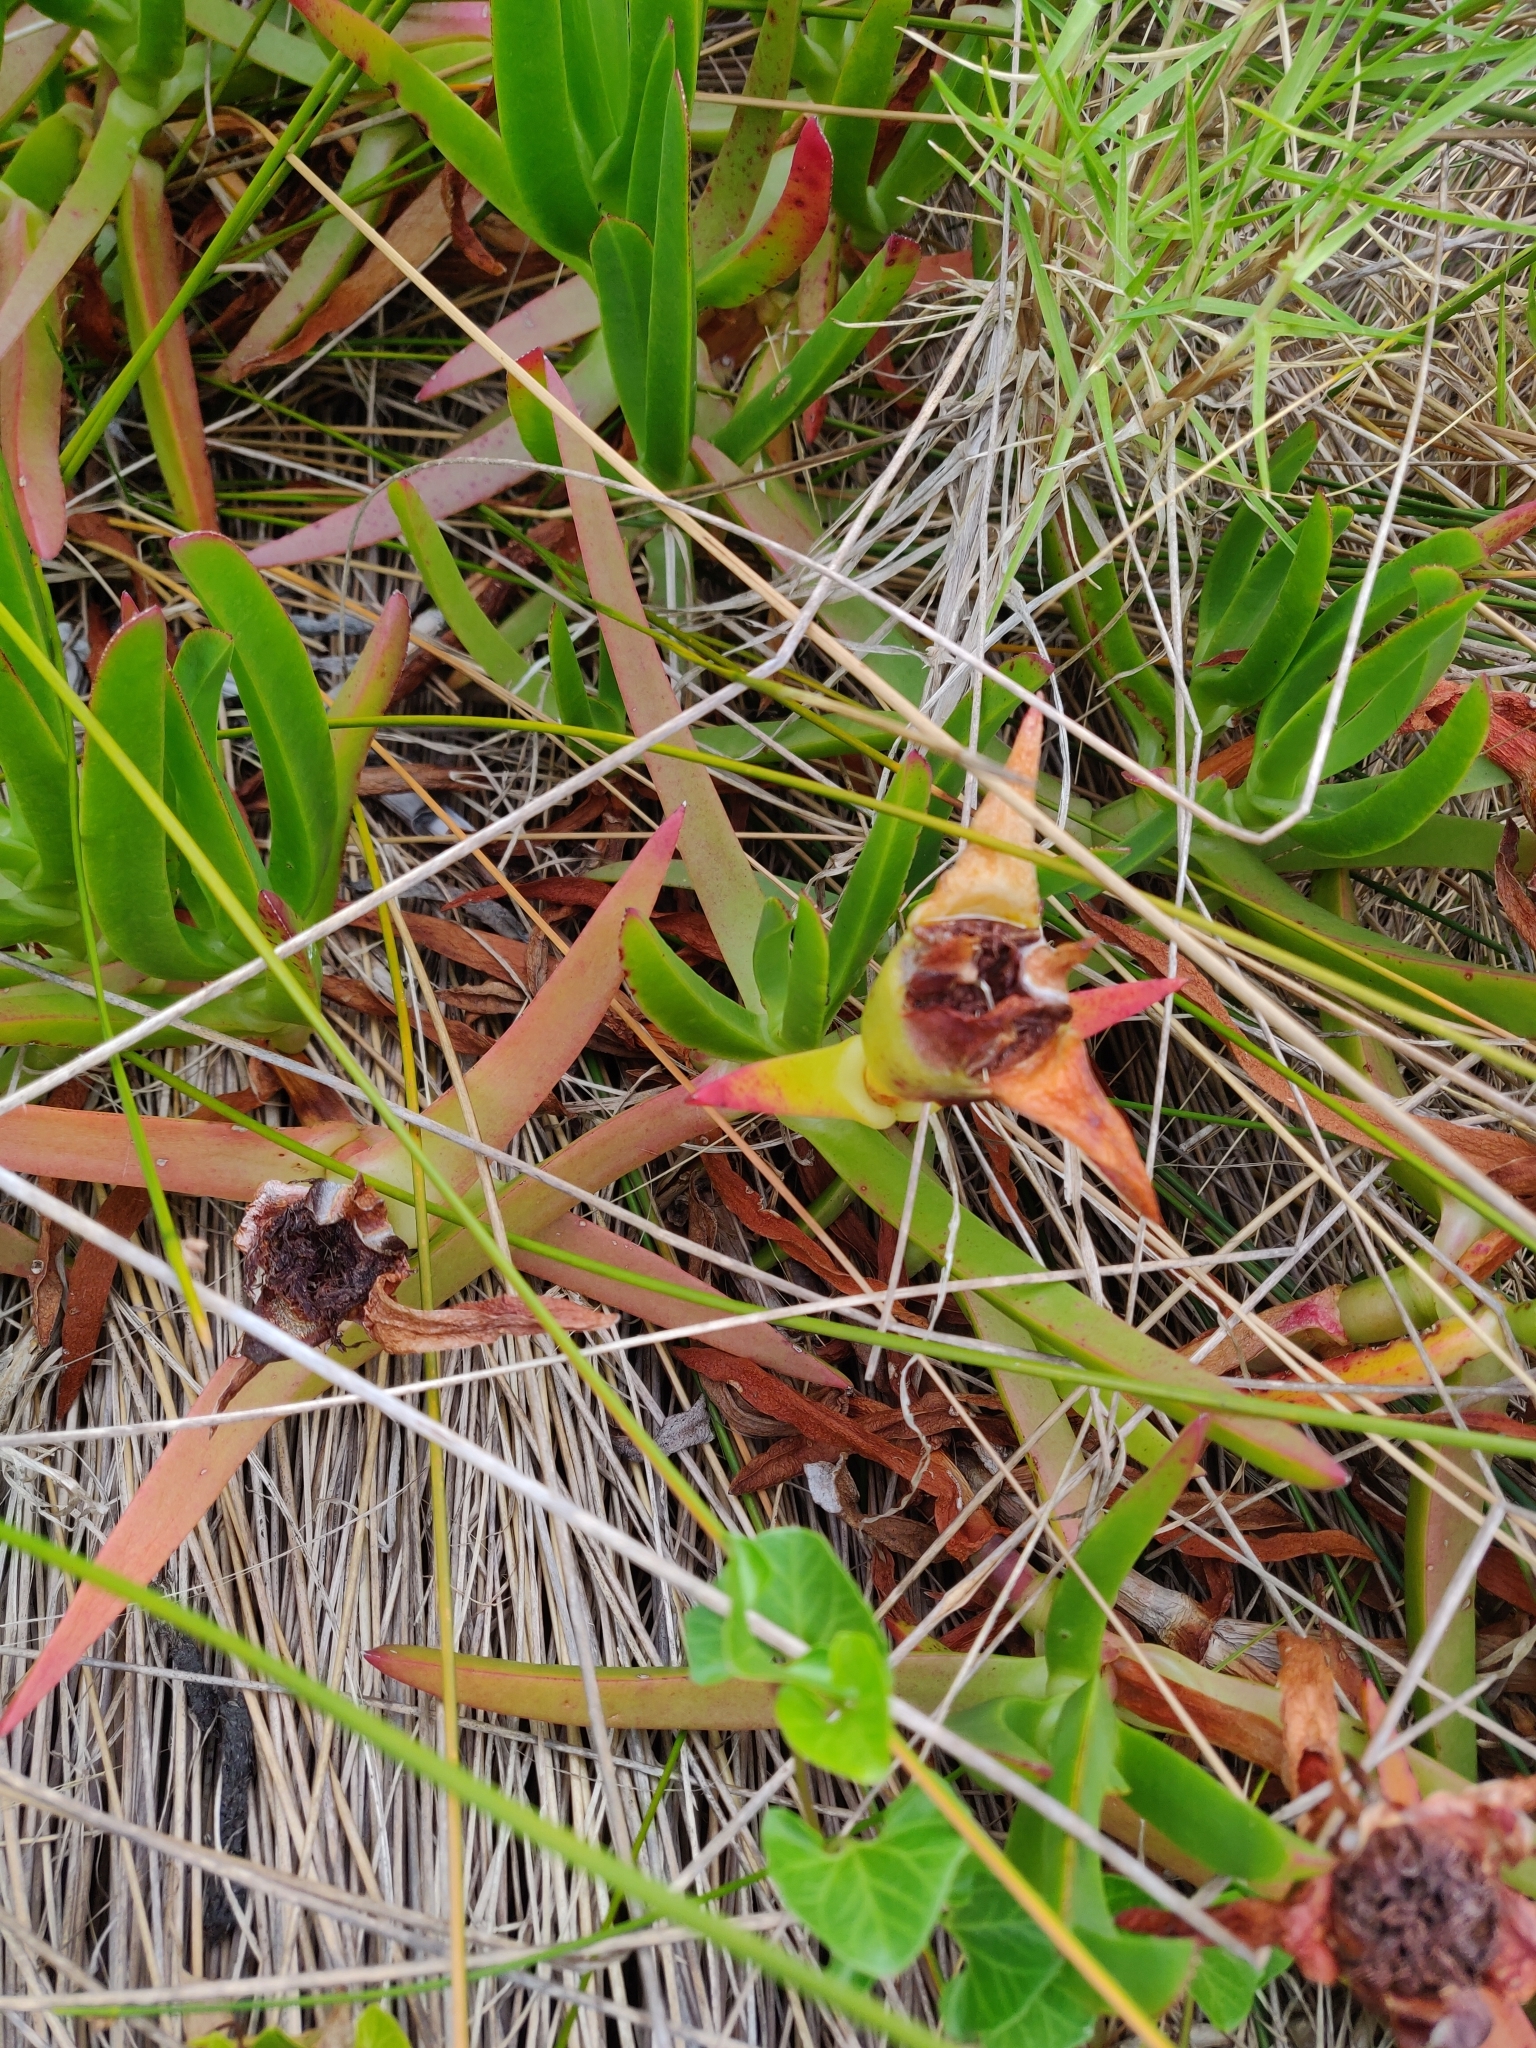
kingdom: Plantae
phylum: Tracheophyta
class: Magnoliopsida
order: Caryophyllales
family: Aizoaceae
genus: Carpobrotus
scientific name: Carpobrotus edulis
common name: Hottentot-fig
